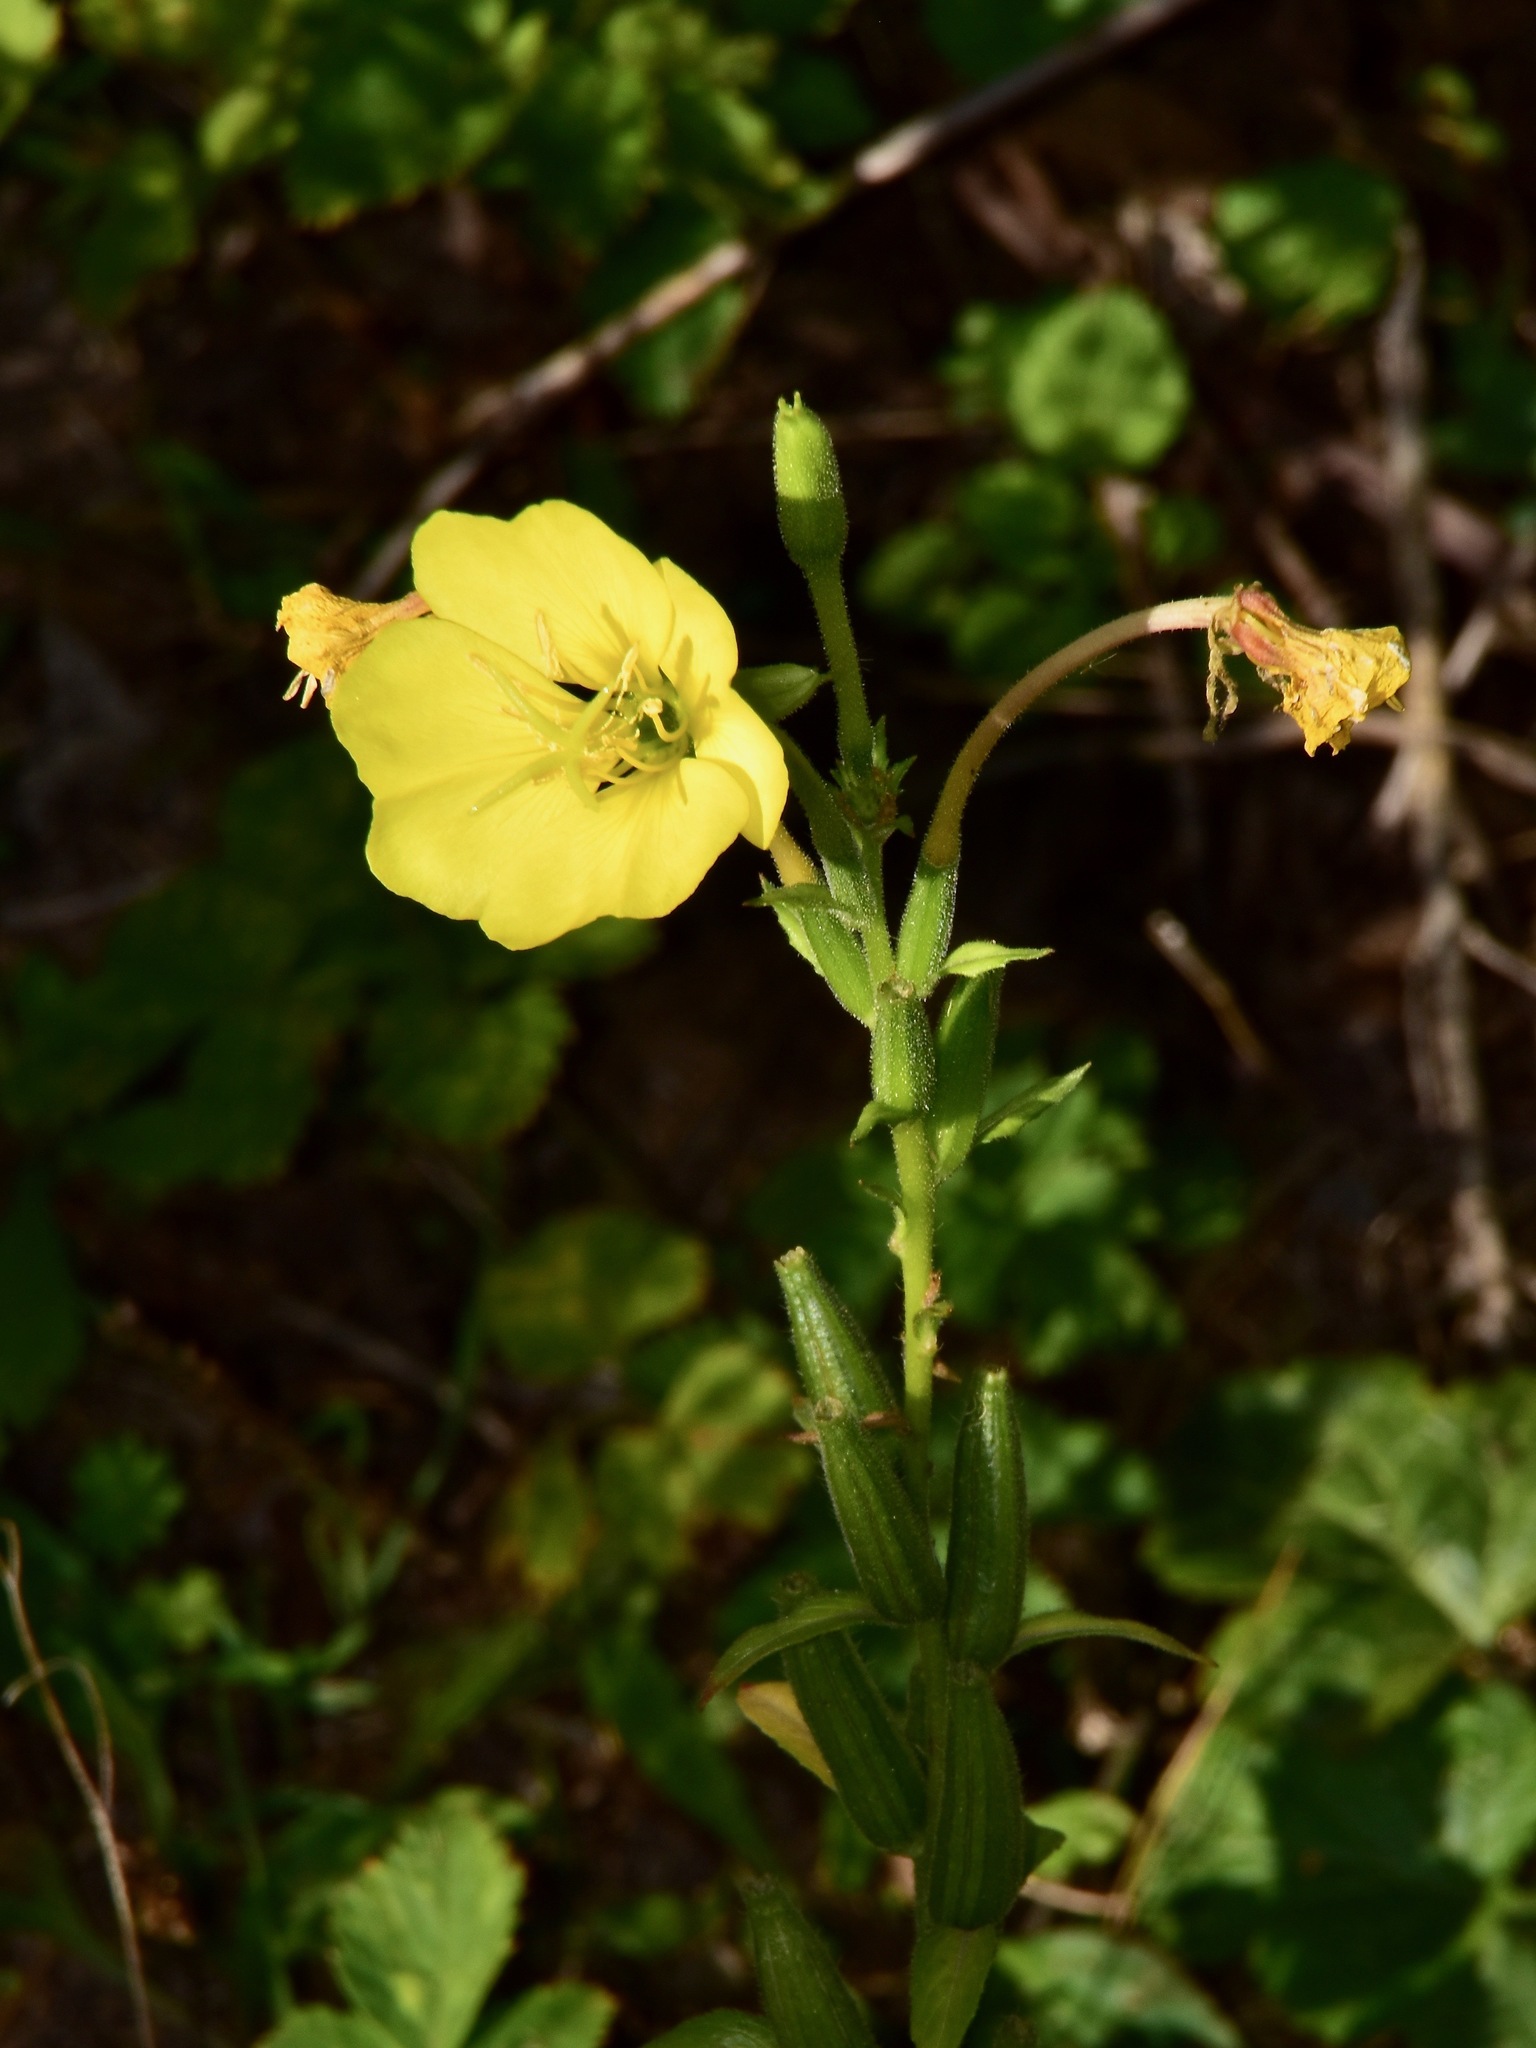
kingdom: Plantae
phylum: Tracheophyta
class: Magnoliopsida
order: Myrtales
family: Onagraceae
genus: Oenothera
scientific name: Oenothera biennis
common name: Common evening-primrose
